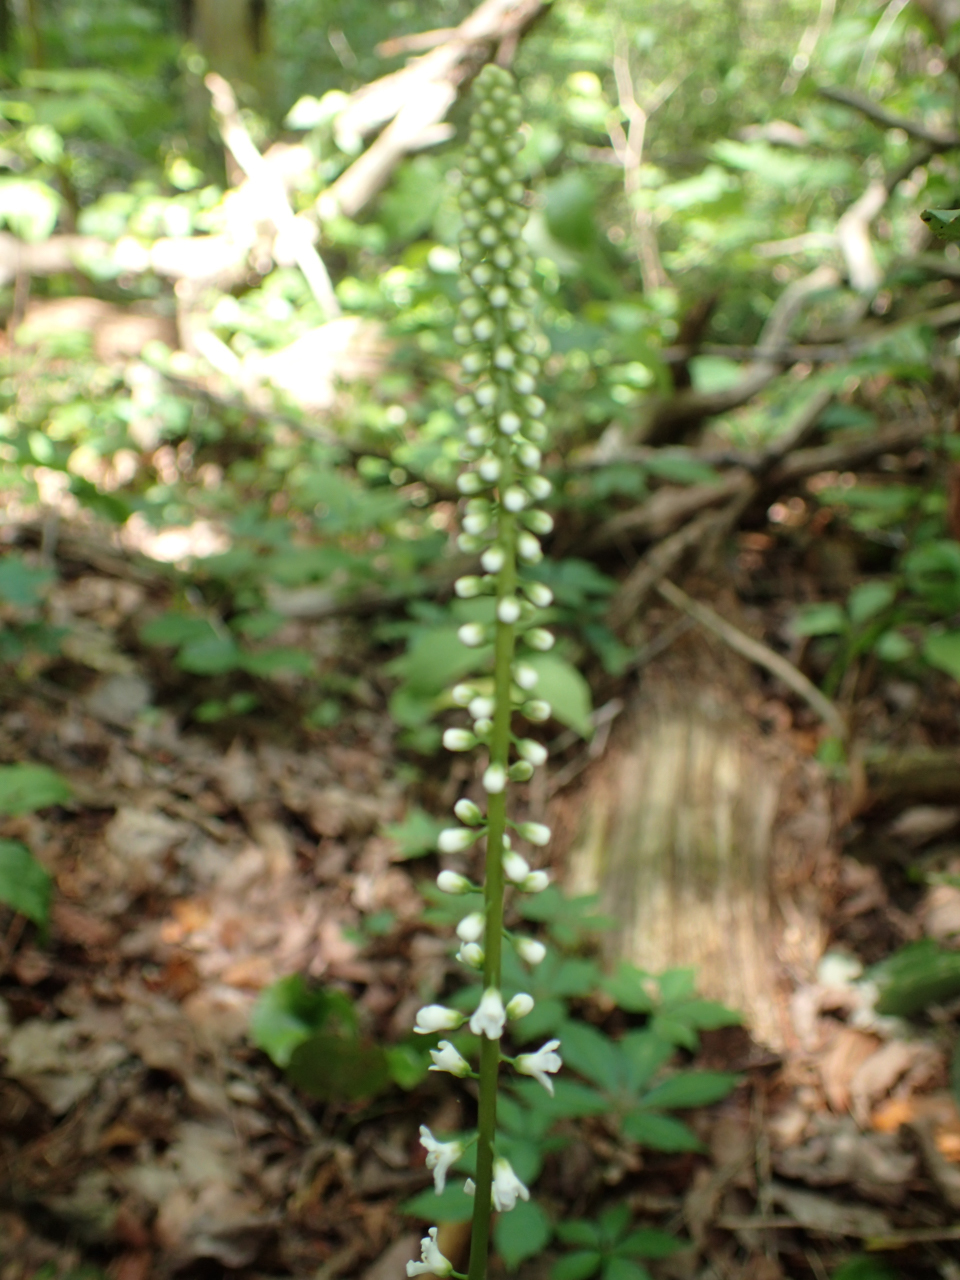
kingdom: Plantae
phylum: Tracheophyta
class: Magnoliopsida
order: Ericales
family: Diapensiaceae
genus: Galax
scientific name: Galax urceolata
